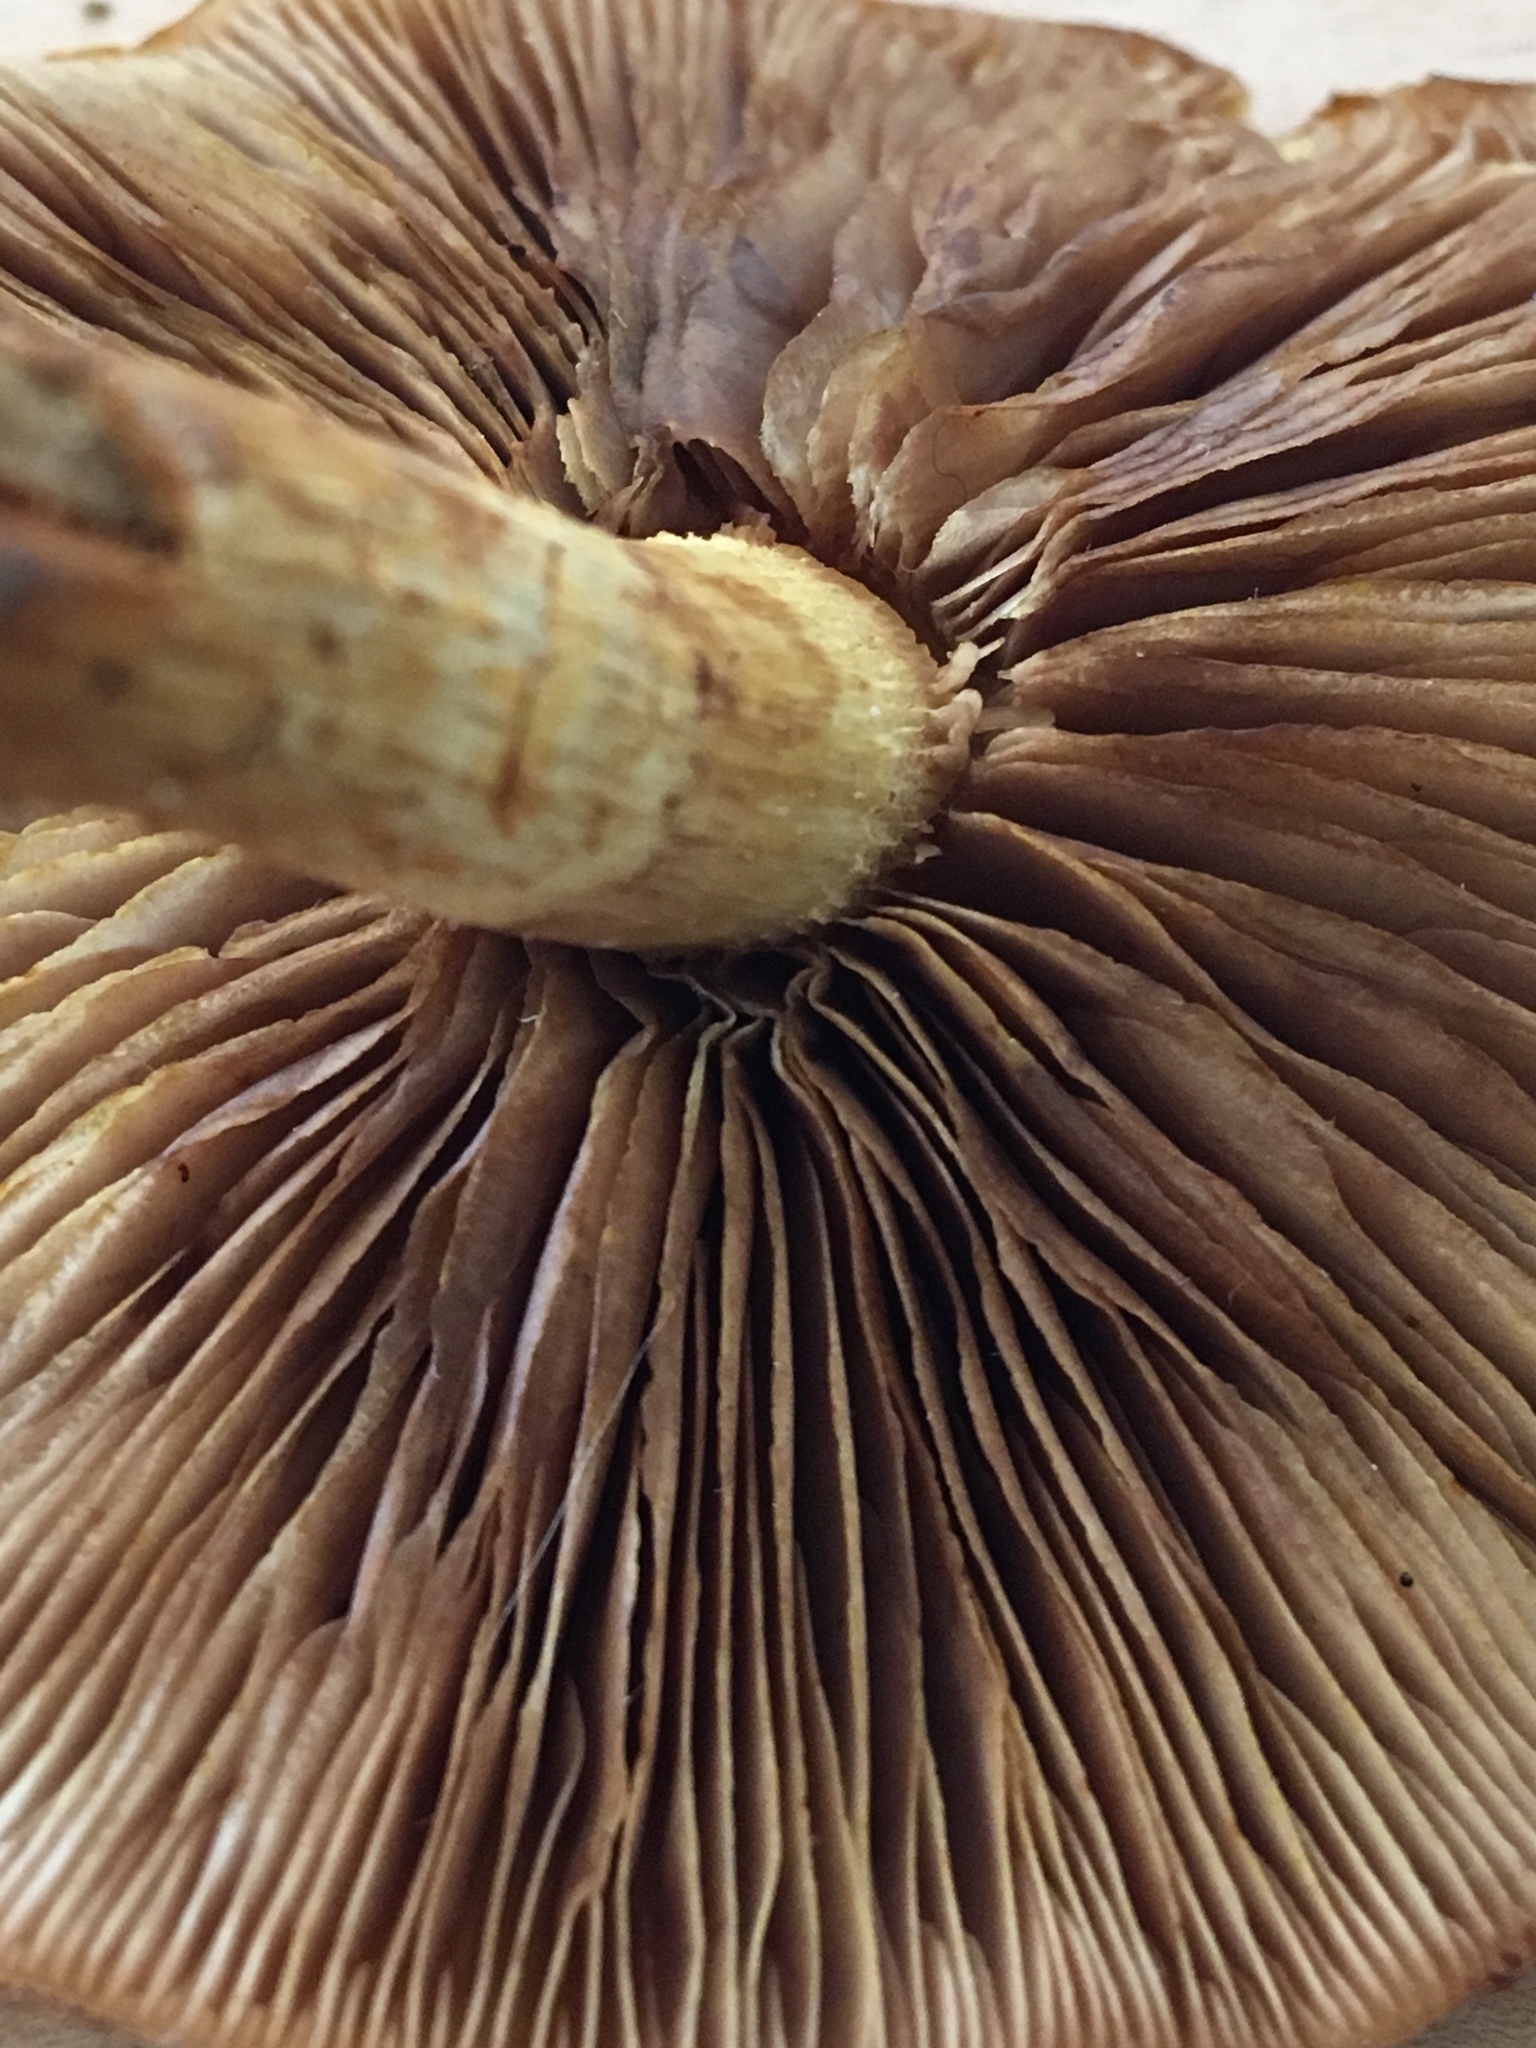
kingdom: Fungi
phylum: Basidiomycota
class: Agaricomycetes
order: Agaricales
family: Strophariaceae
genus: Pholiota
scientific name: Pholiota limonella
